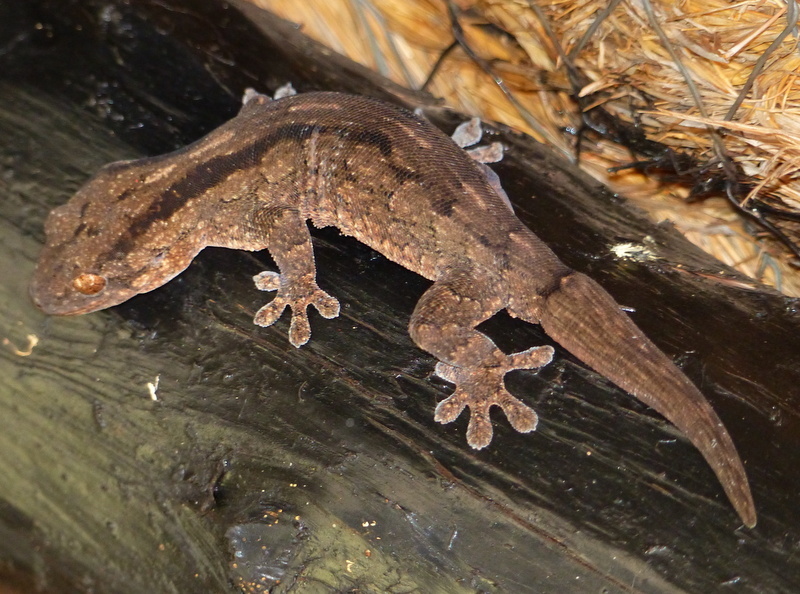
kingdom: Animalia
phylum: Chordata
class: Squamata
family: Gekkonidae
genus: Homopholis
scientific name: Homopholis arnoldi
